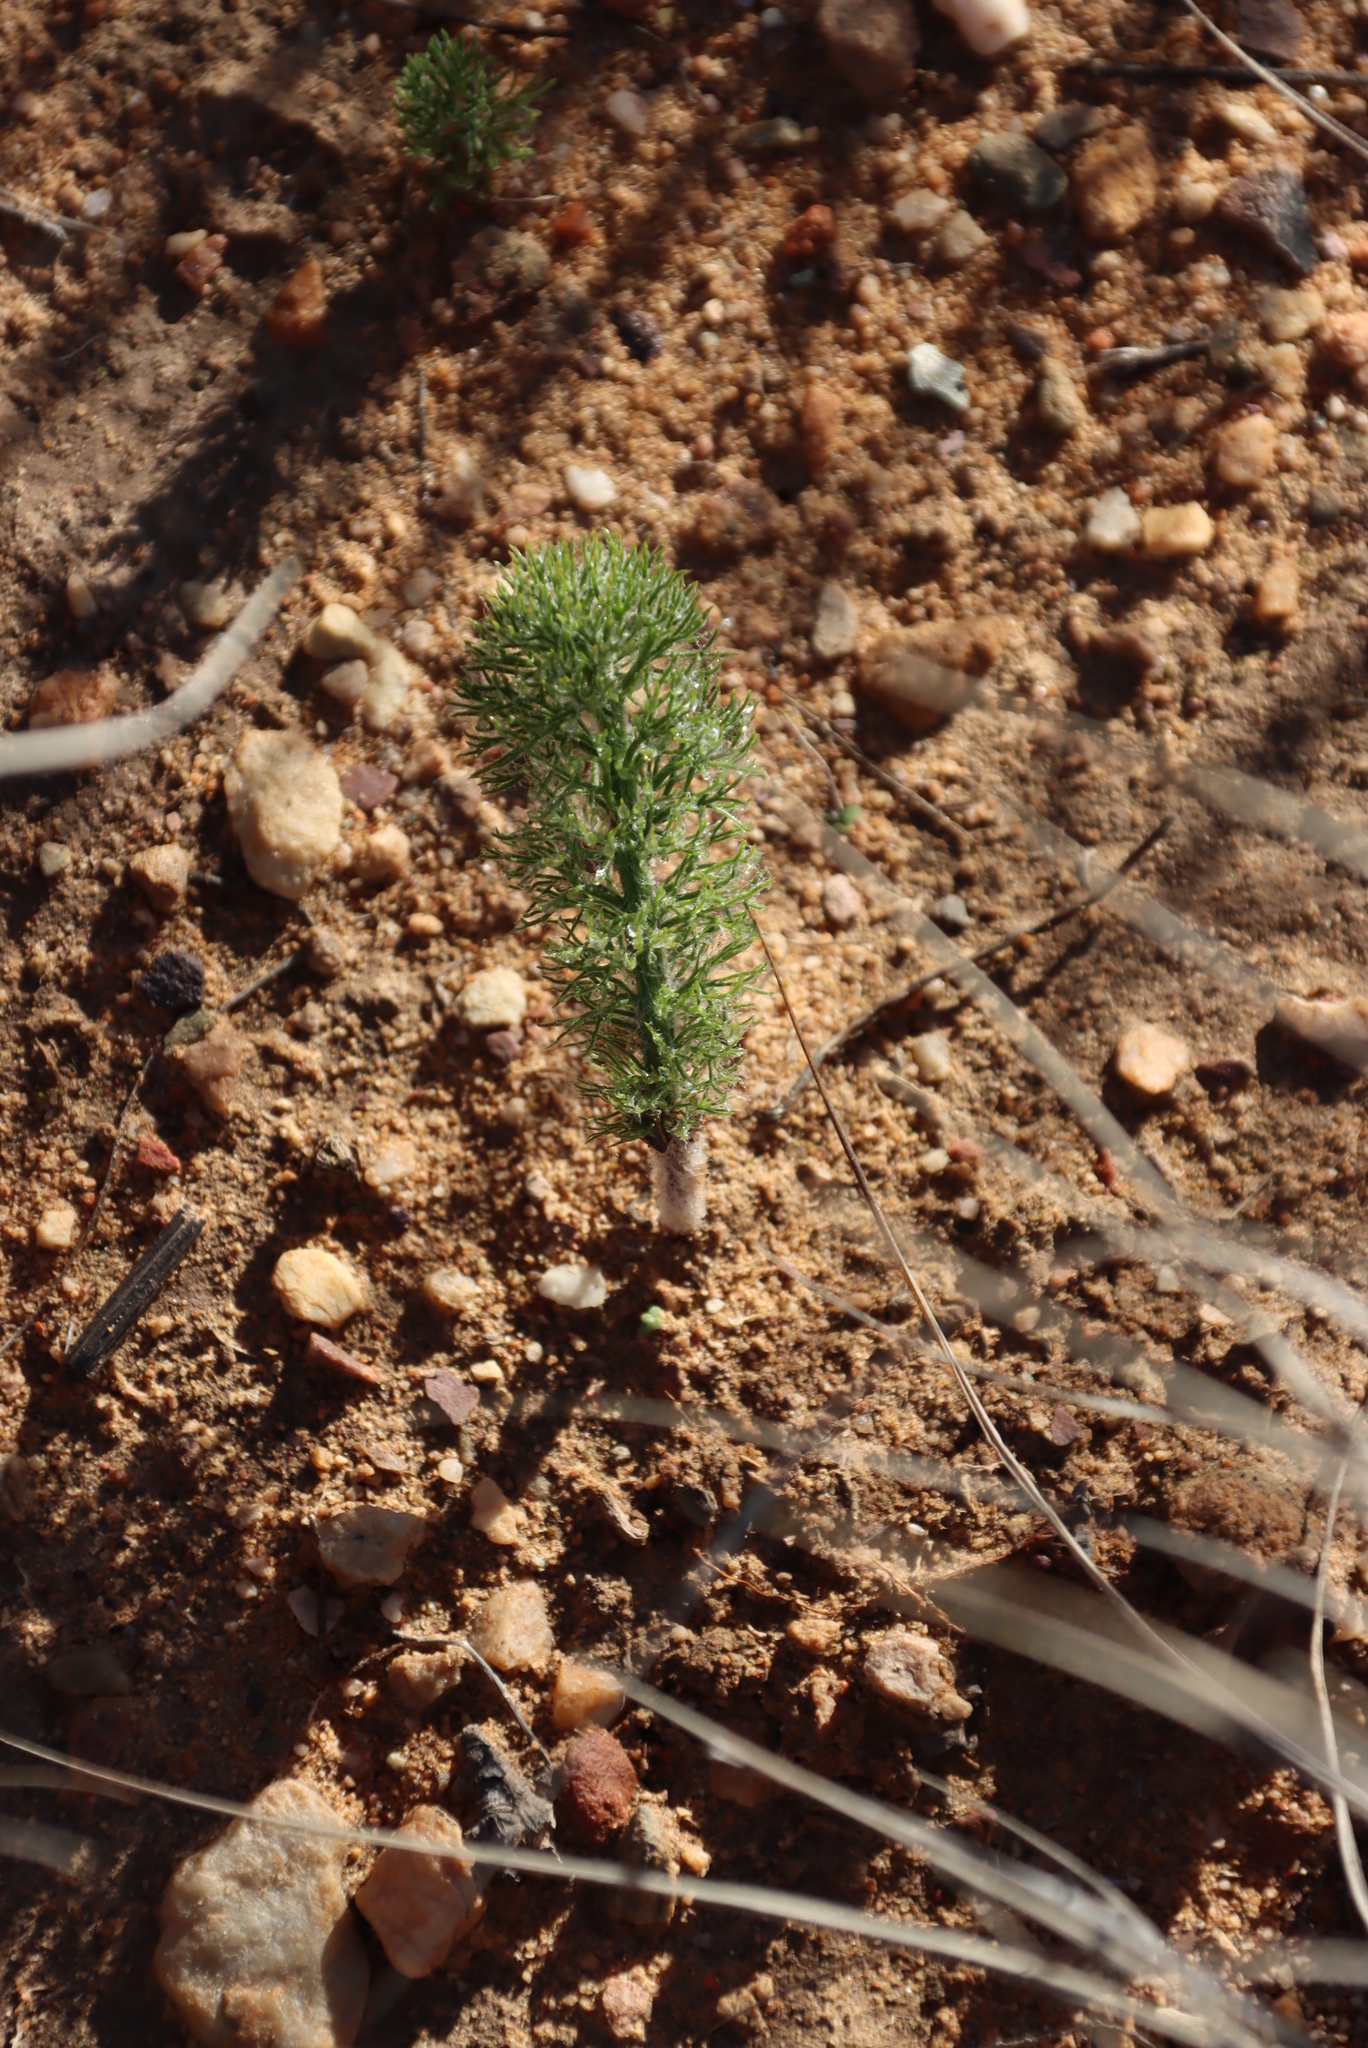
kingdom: Plantae
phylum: Tracheophyta
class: Liliopsida
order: Asparagales
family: Asparagaceae
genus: Eriospermum
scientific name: Eriospermum paradoxum
